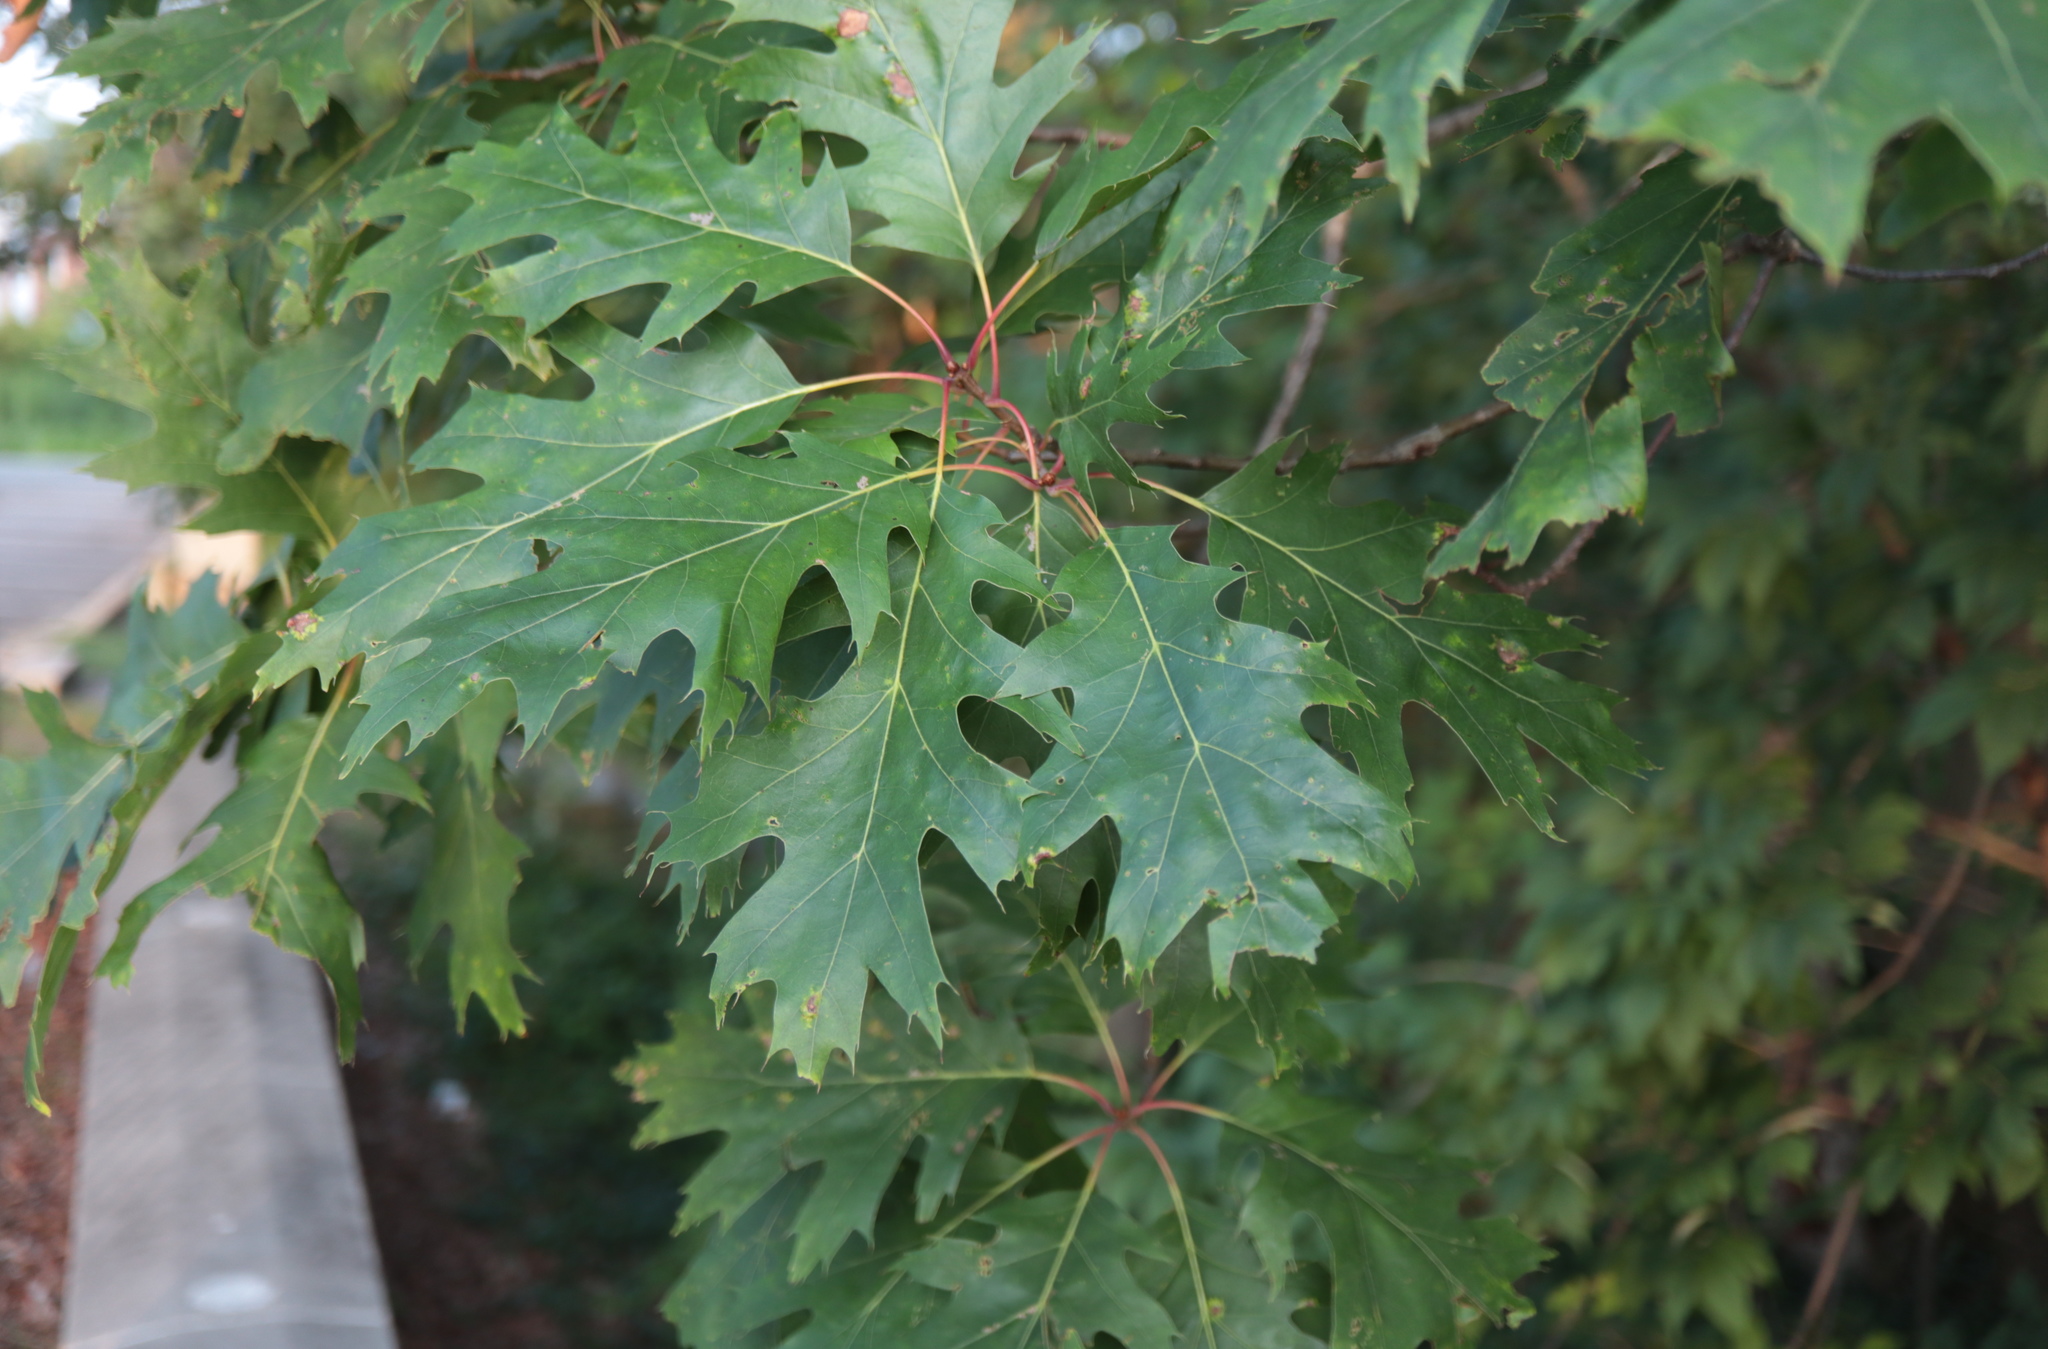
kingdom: Plantae
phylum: Tracheophyta
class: Magnoliopsida
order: Fagales
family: Fagaceae
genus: Quercus
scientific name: Quercus rubra
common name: Red oak
